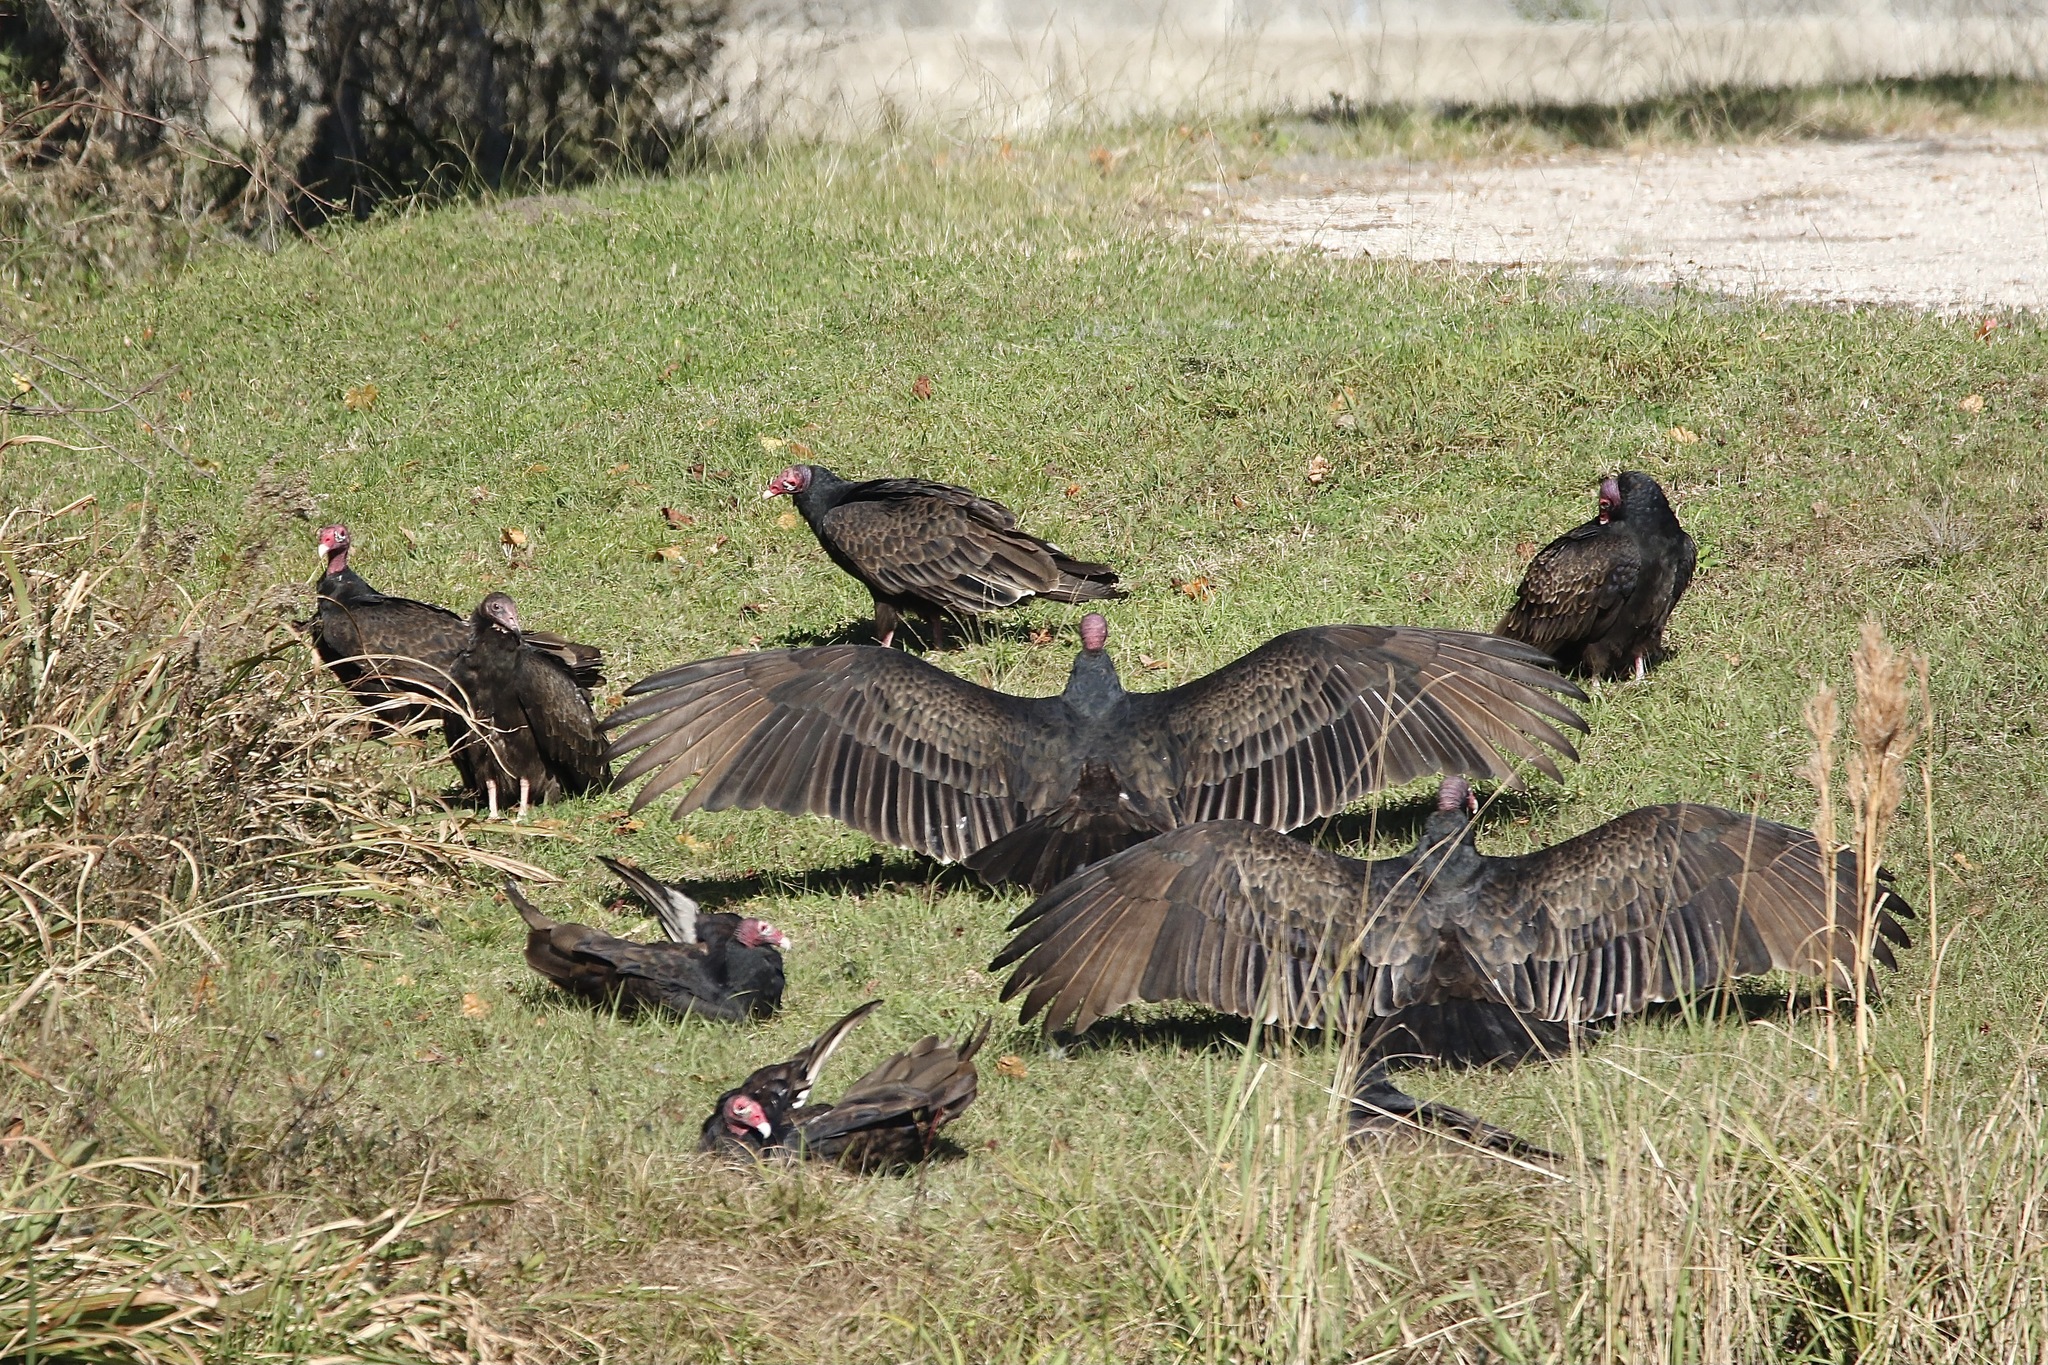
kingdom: Animalia
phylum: Chordata
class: Aves
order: Accipitriformes
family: Cathartidae
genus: Cathartes
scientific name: Cathartes aura
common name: Turkey vulture
